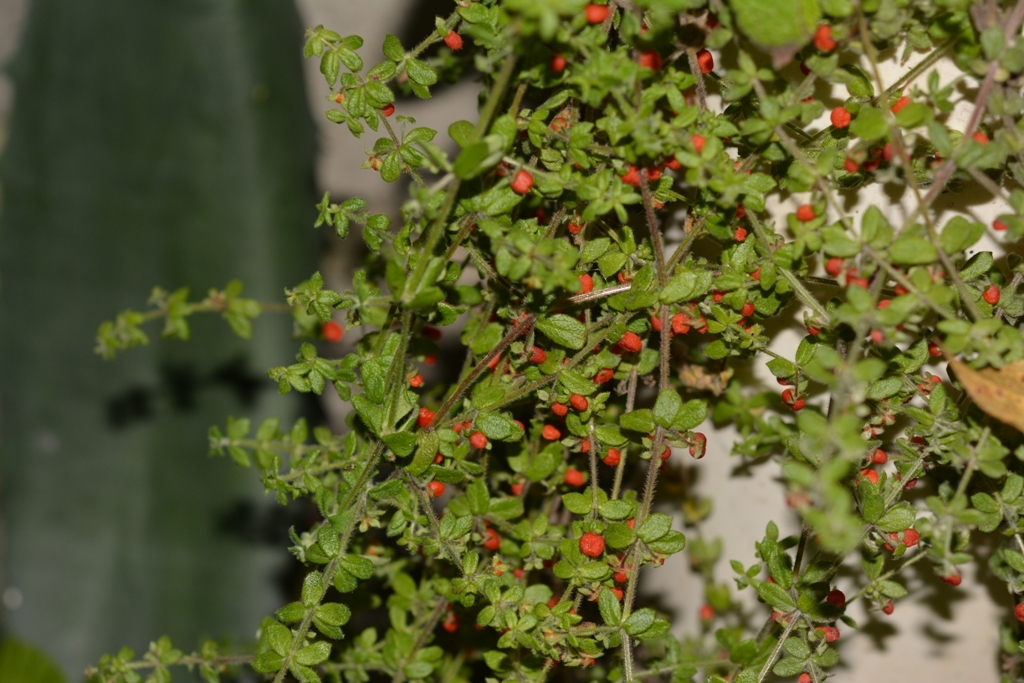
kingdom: Plantae
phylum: Tracheophyta
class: Magnoliopsida
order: Gentianales
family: Rubiaceae
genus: Galium
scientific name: Galium hypocarpium
